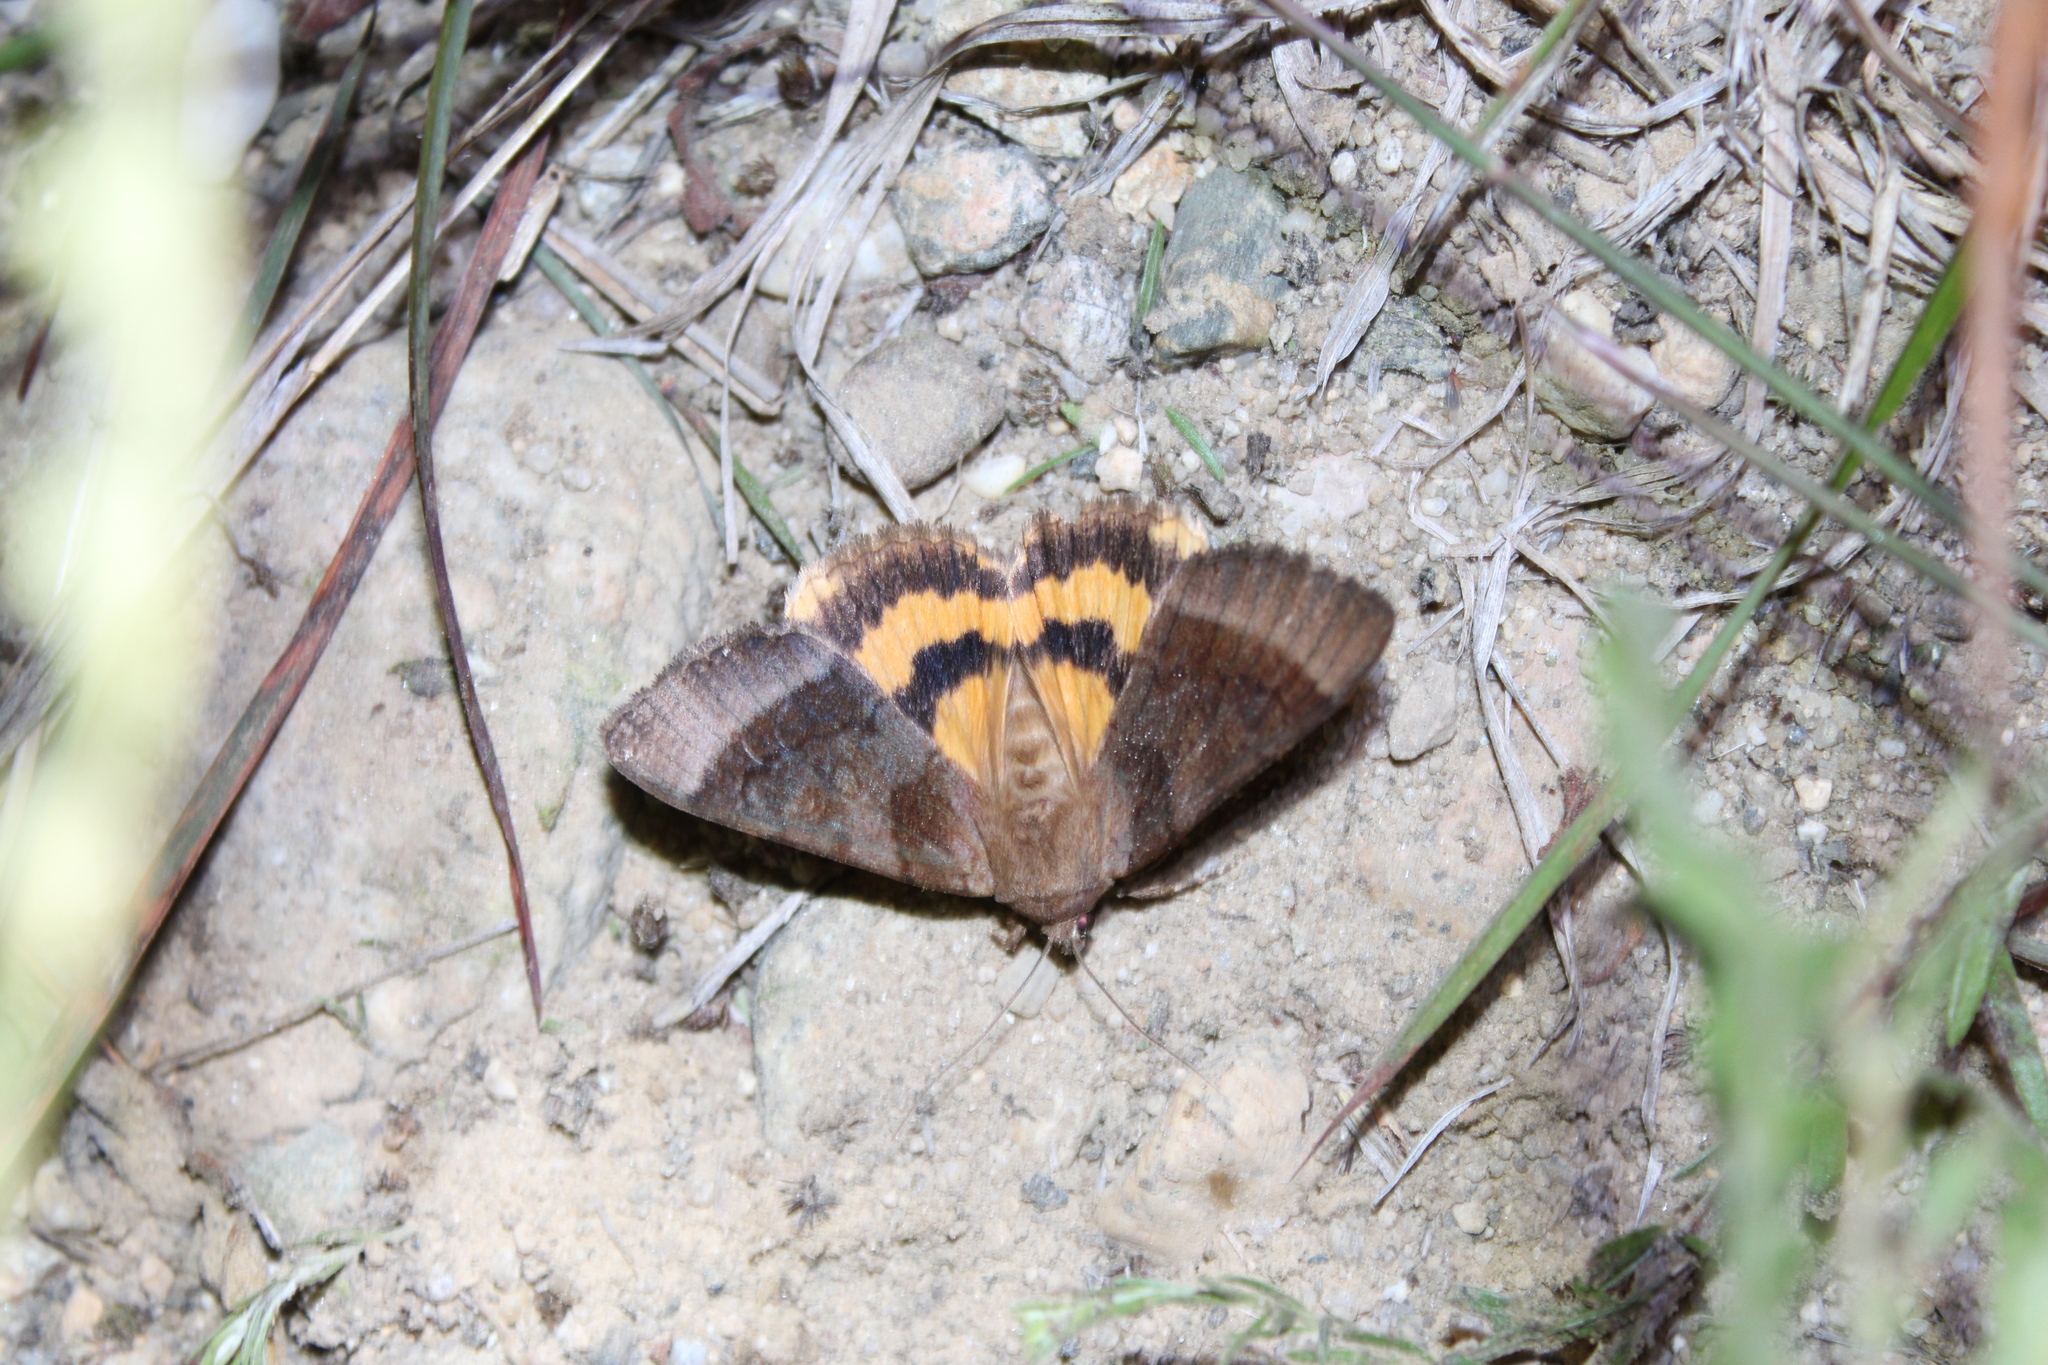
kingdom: Animalia
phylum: Arthropoda
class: Insecta
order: Lepidoptera
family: Erebidae
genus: Catocala
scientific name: Catocala badia
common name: Bay underwing
